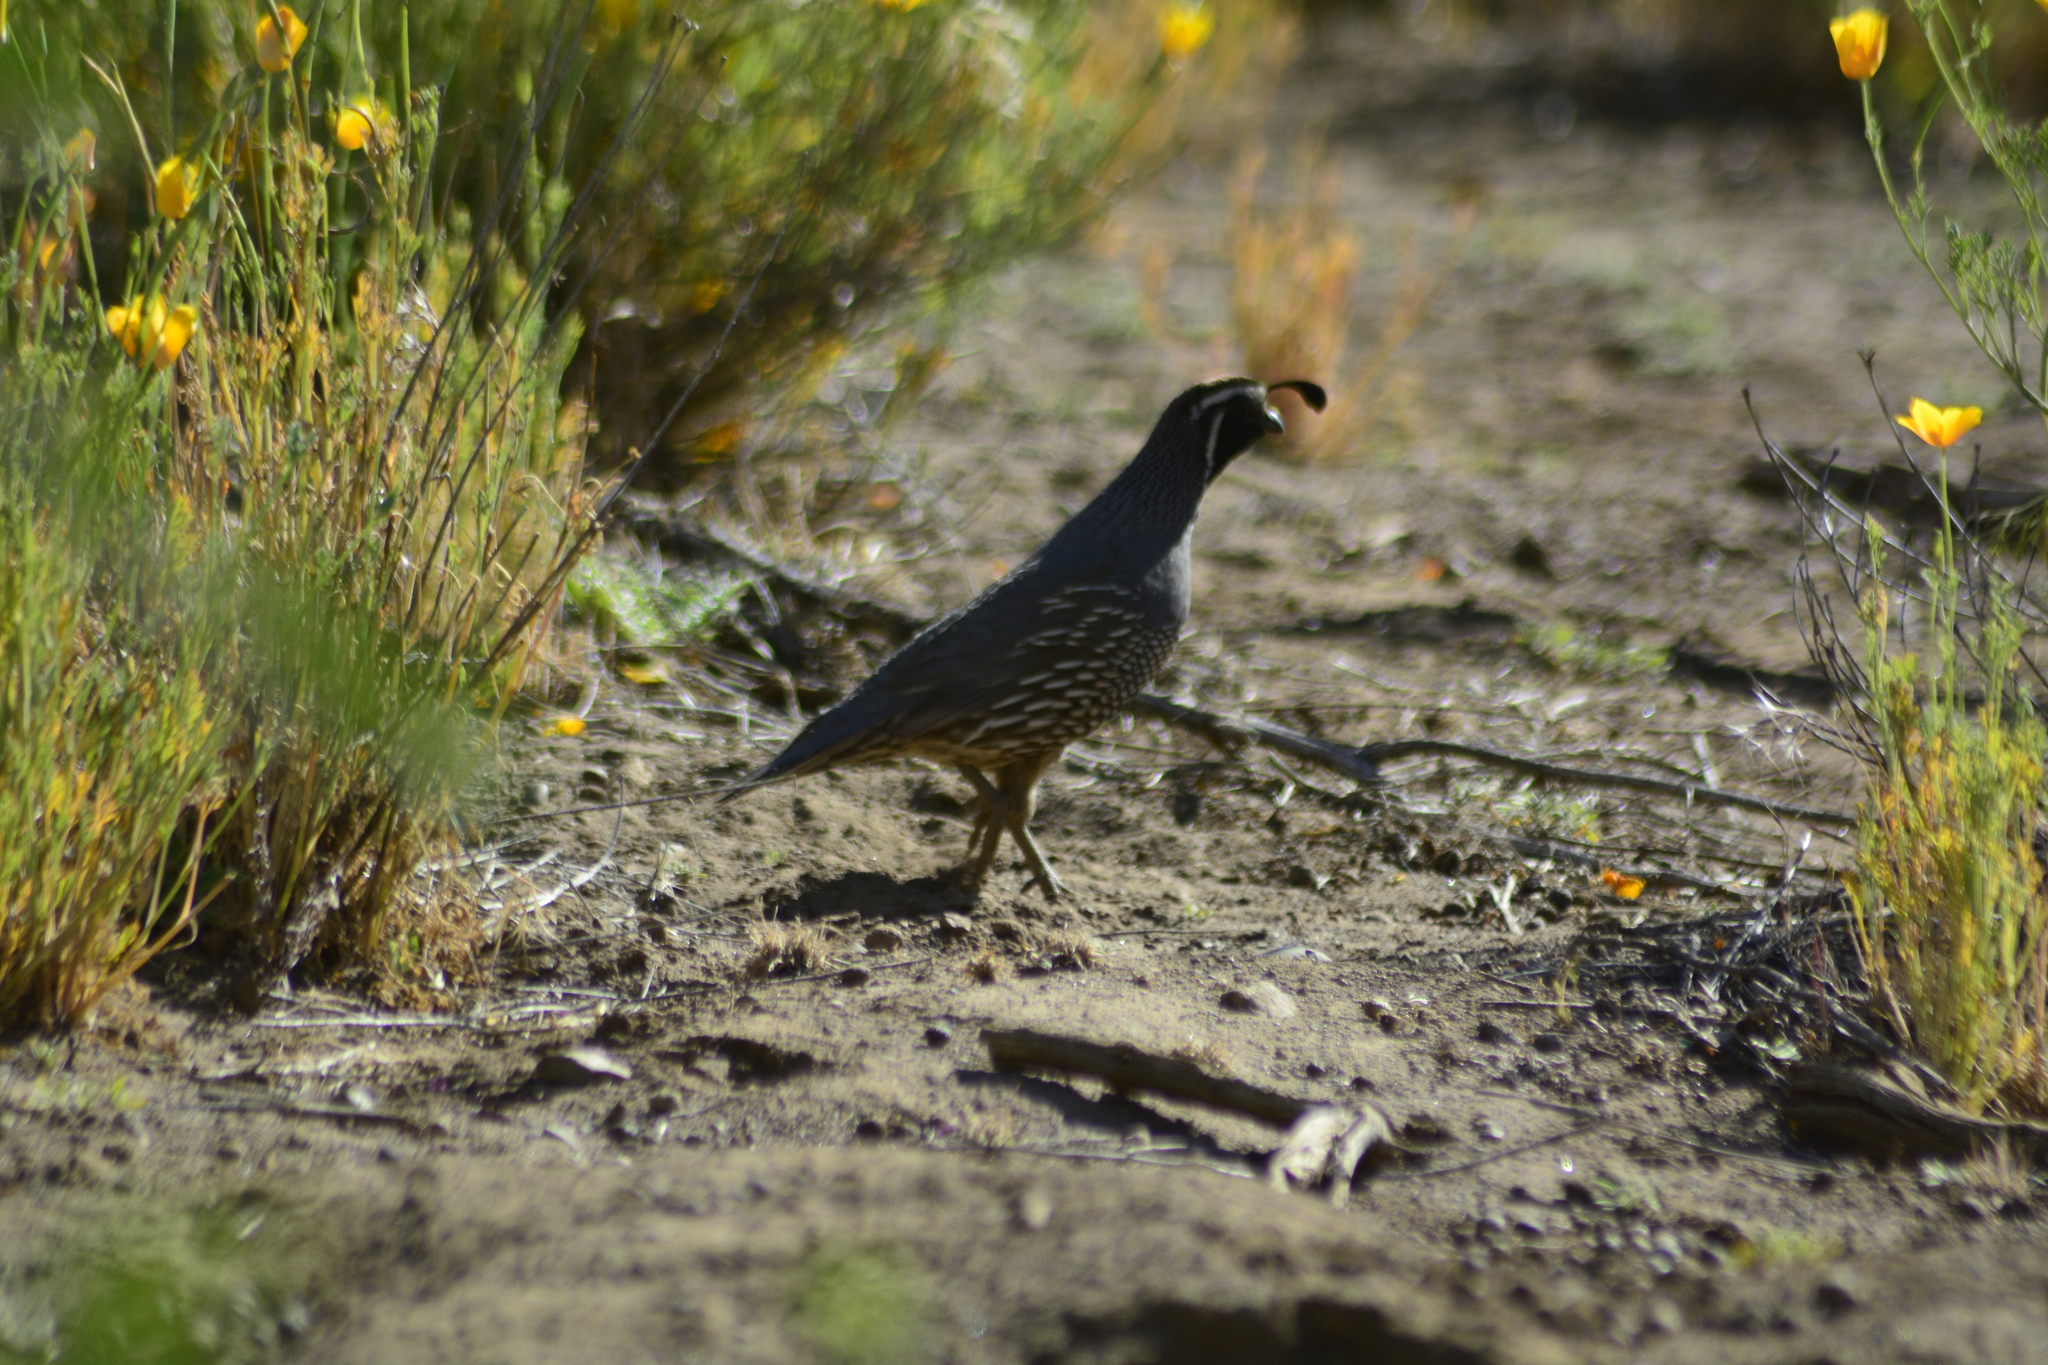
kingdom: Animalia
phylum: Chordata
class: Aves
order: Galliformes
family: Odontophoridae
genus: Callipepla
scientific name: Callipepla californica
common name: California quail
